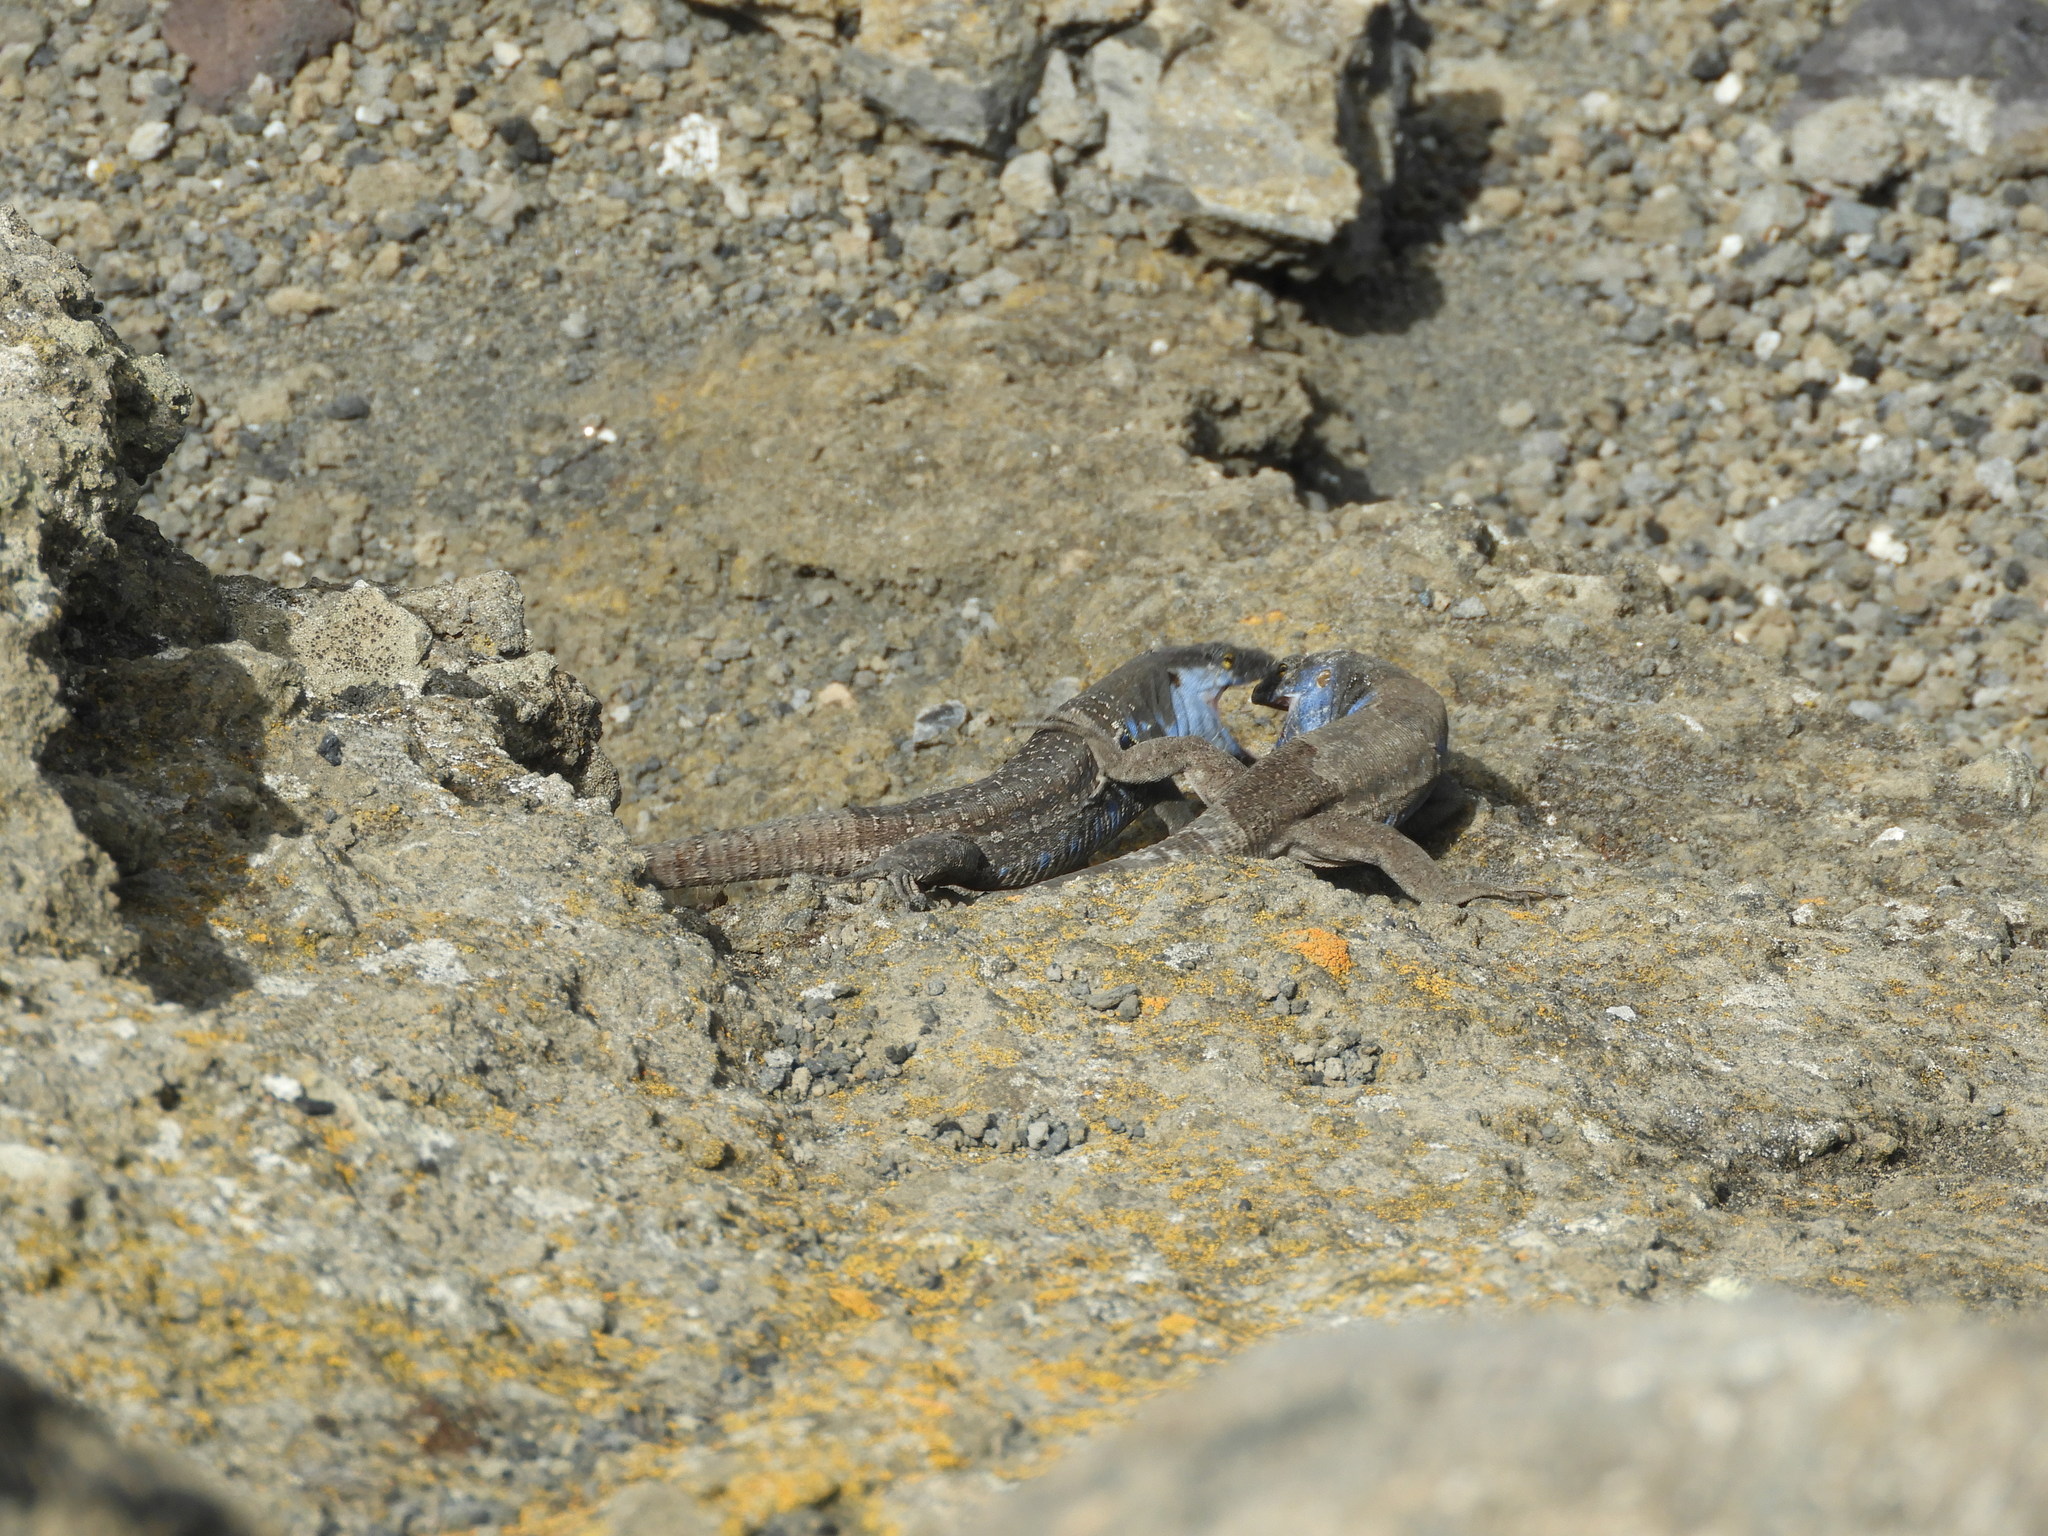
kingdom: Animalia
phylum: Chordata
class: Squamata
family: Lacertidae
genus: Gallotia
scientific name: Gallotia galloti
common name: Gallot's lizard
